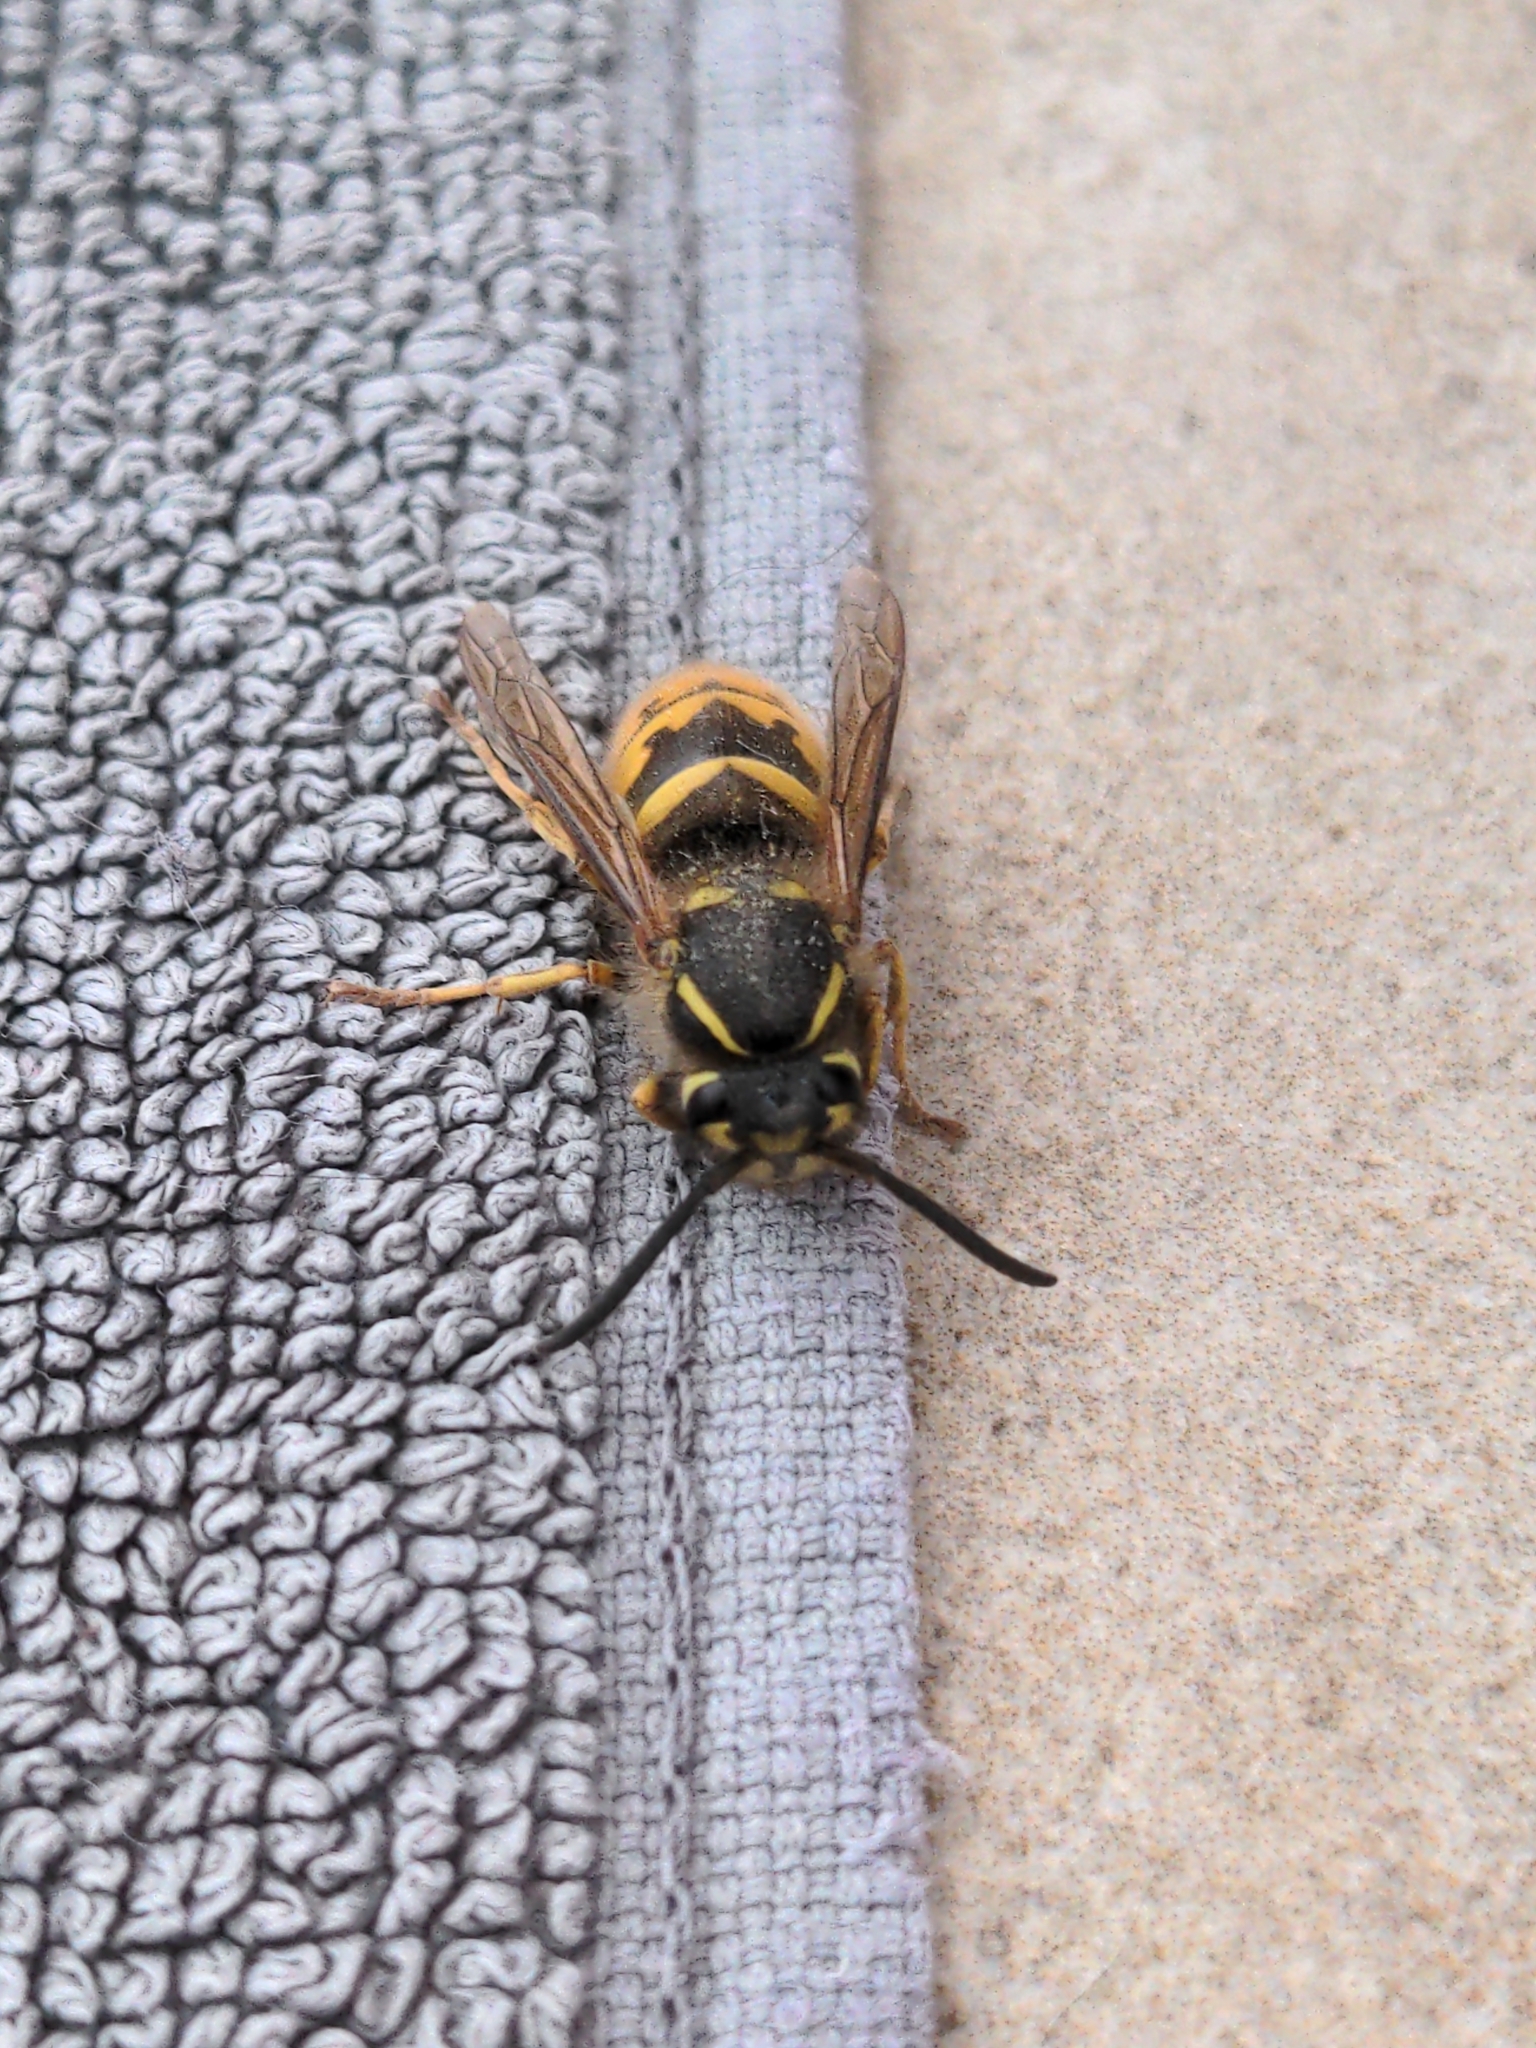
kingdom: Animalia
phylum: Arthropoda
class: Insecta
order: Hymenoptera
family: Vespidae
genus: Vespula
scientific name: Vespula vulgaris
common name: Common wasp
